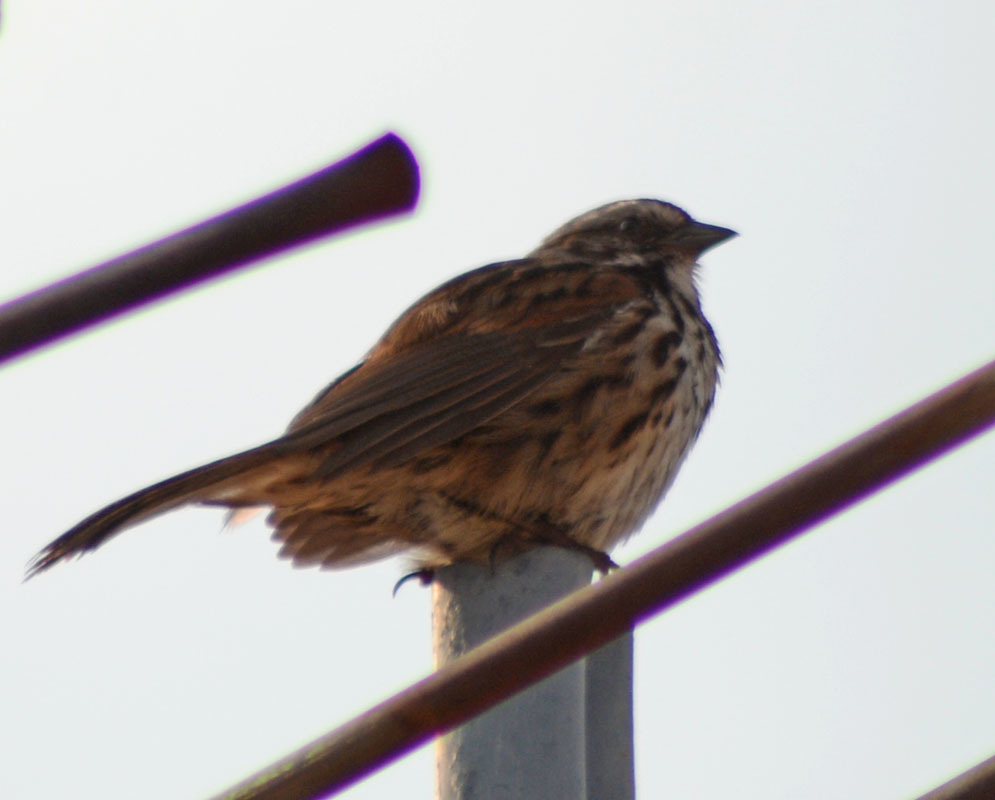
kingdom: Animalia
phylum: Chordata
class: Aves
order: Passeriformes
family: Passerellidae
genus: Melospiza
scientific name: Melospiza melodia
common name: Song sparrow
